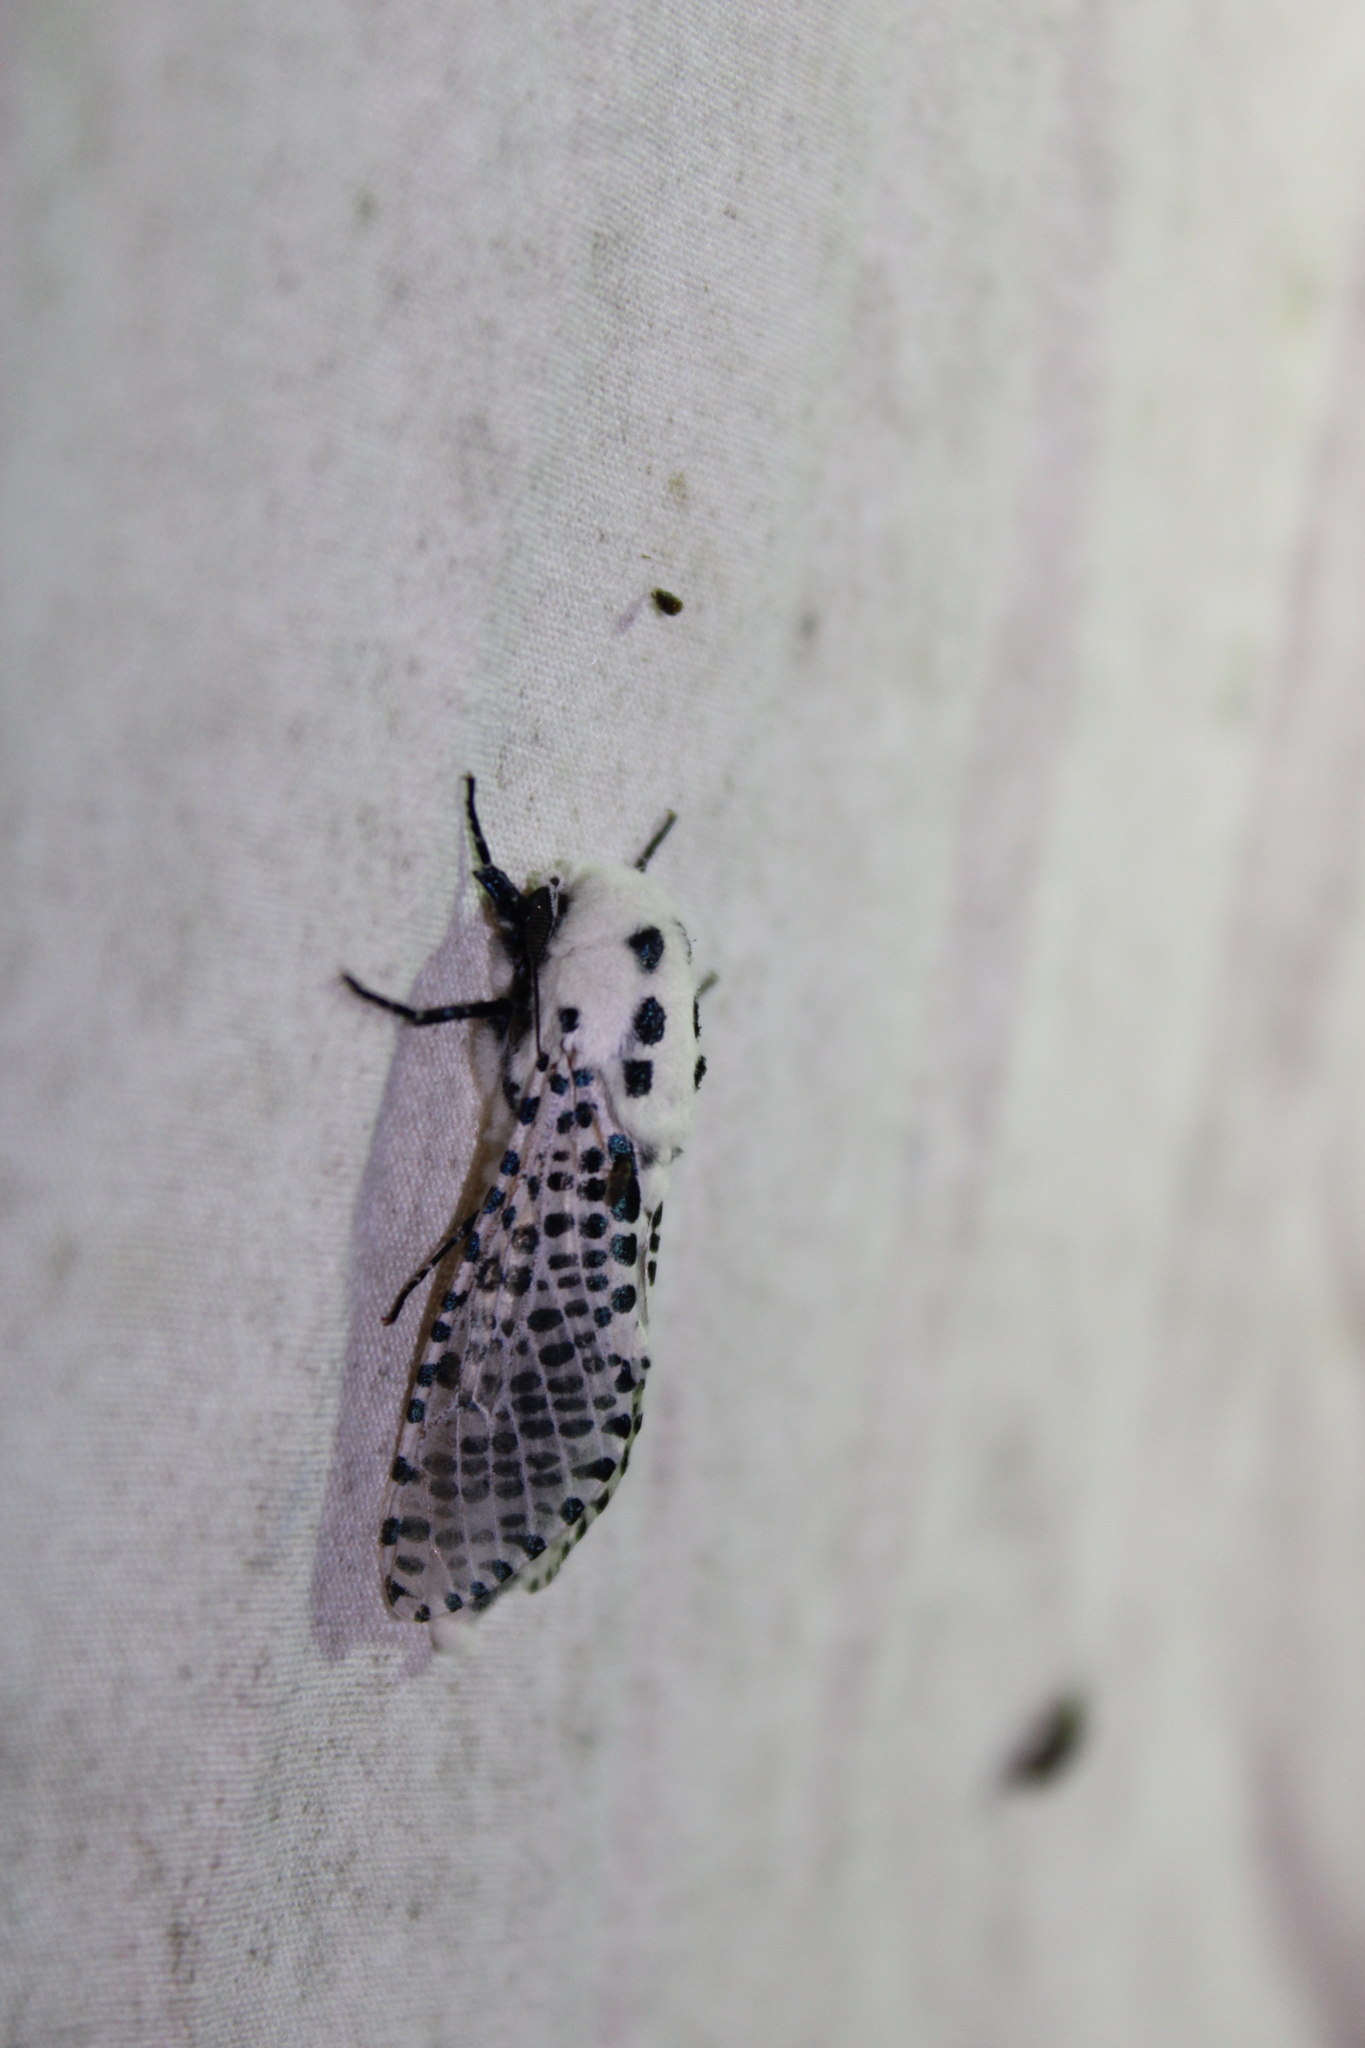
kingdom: Animalia
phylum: Arthropoda
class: Insecta
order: Lepidoptera
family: Cossidae
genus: Zeuzera
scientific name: Zeuzera pyrina
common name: Leopard moth
